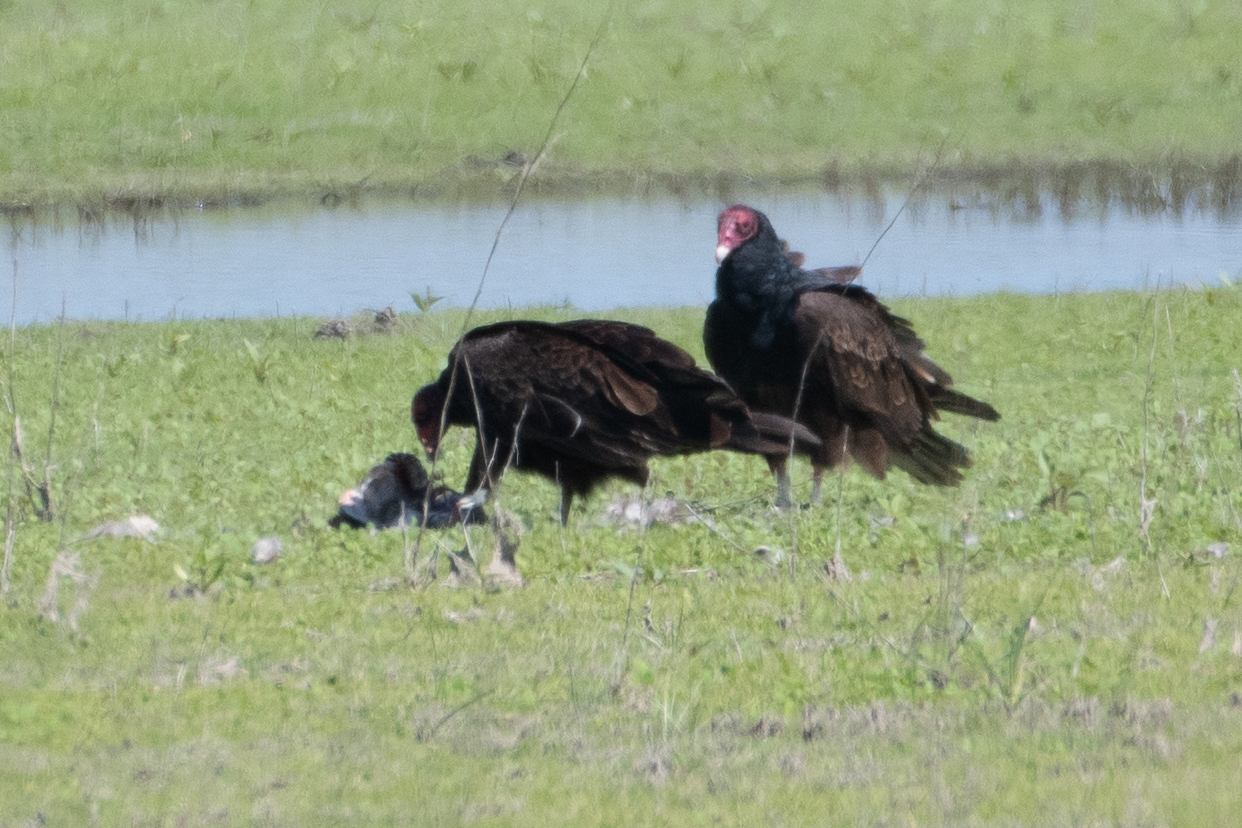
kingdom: Animalia
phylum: Chordata
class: Aves
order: Accipitriformes
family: Cathartidae
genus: Cathartes
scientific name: Cathartes aura
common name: Turkey vulture
